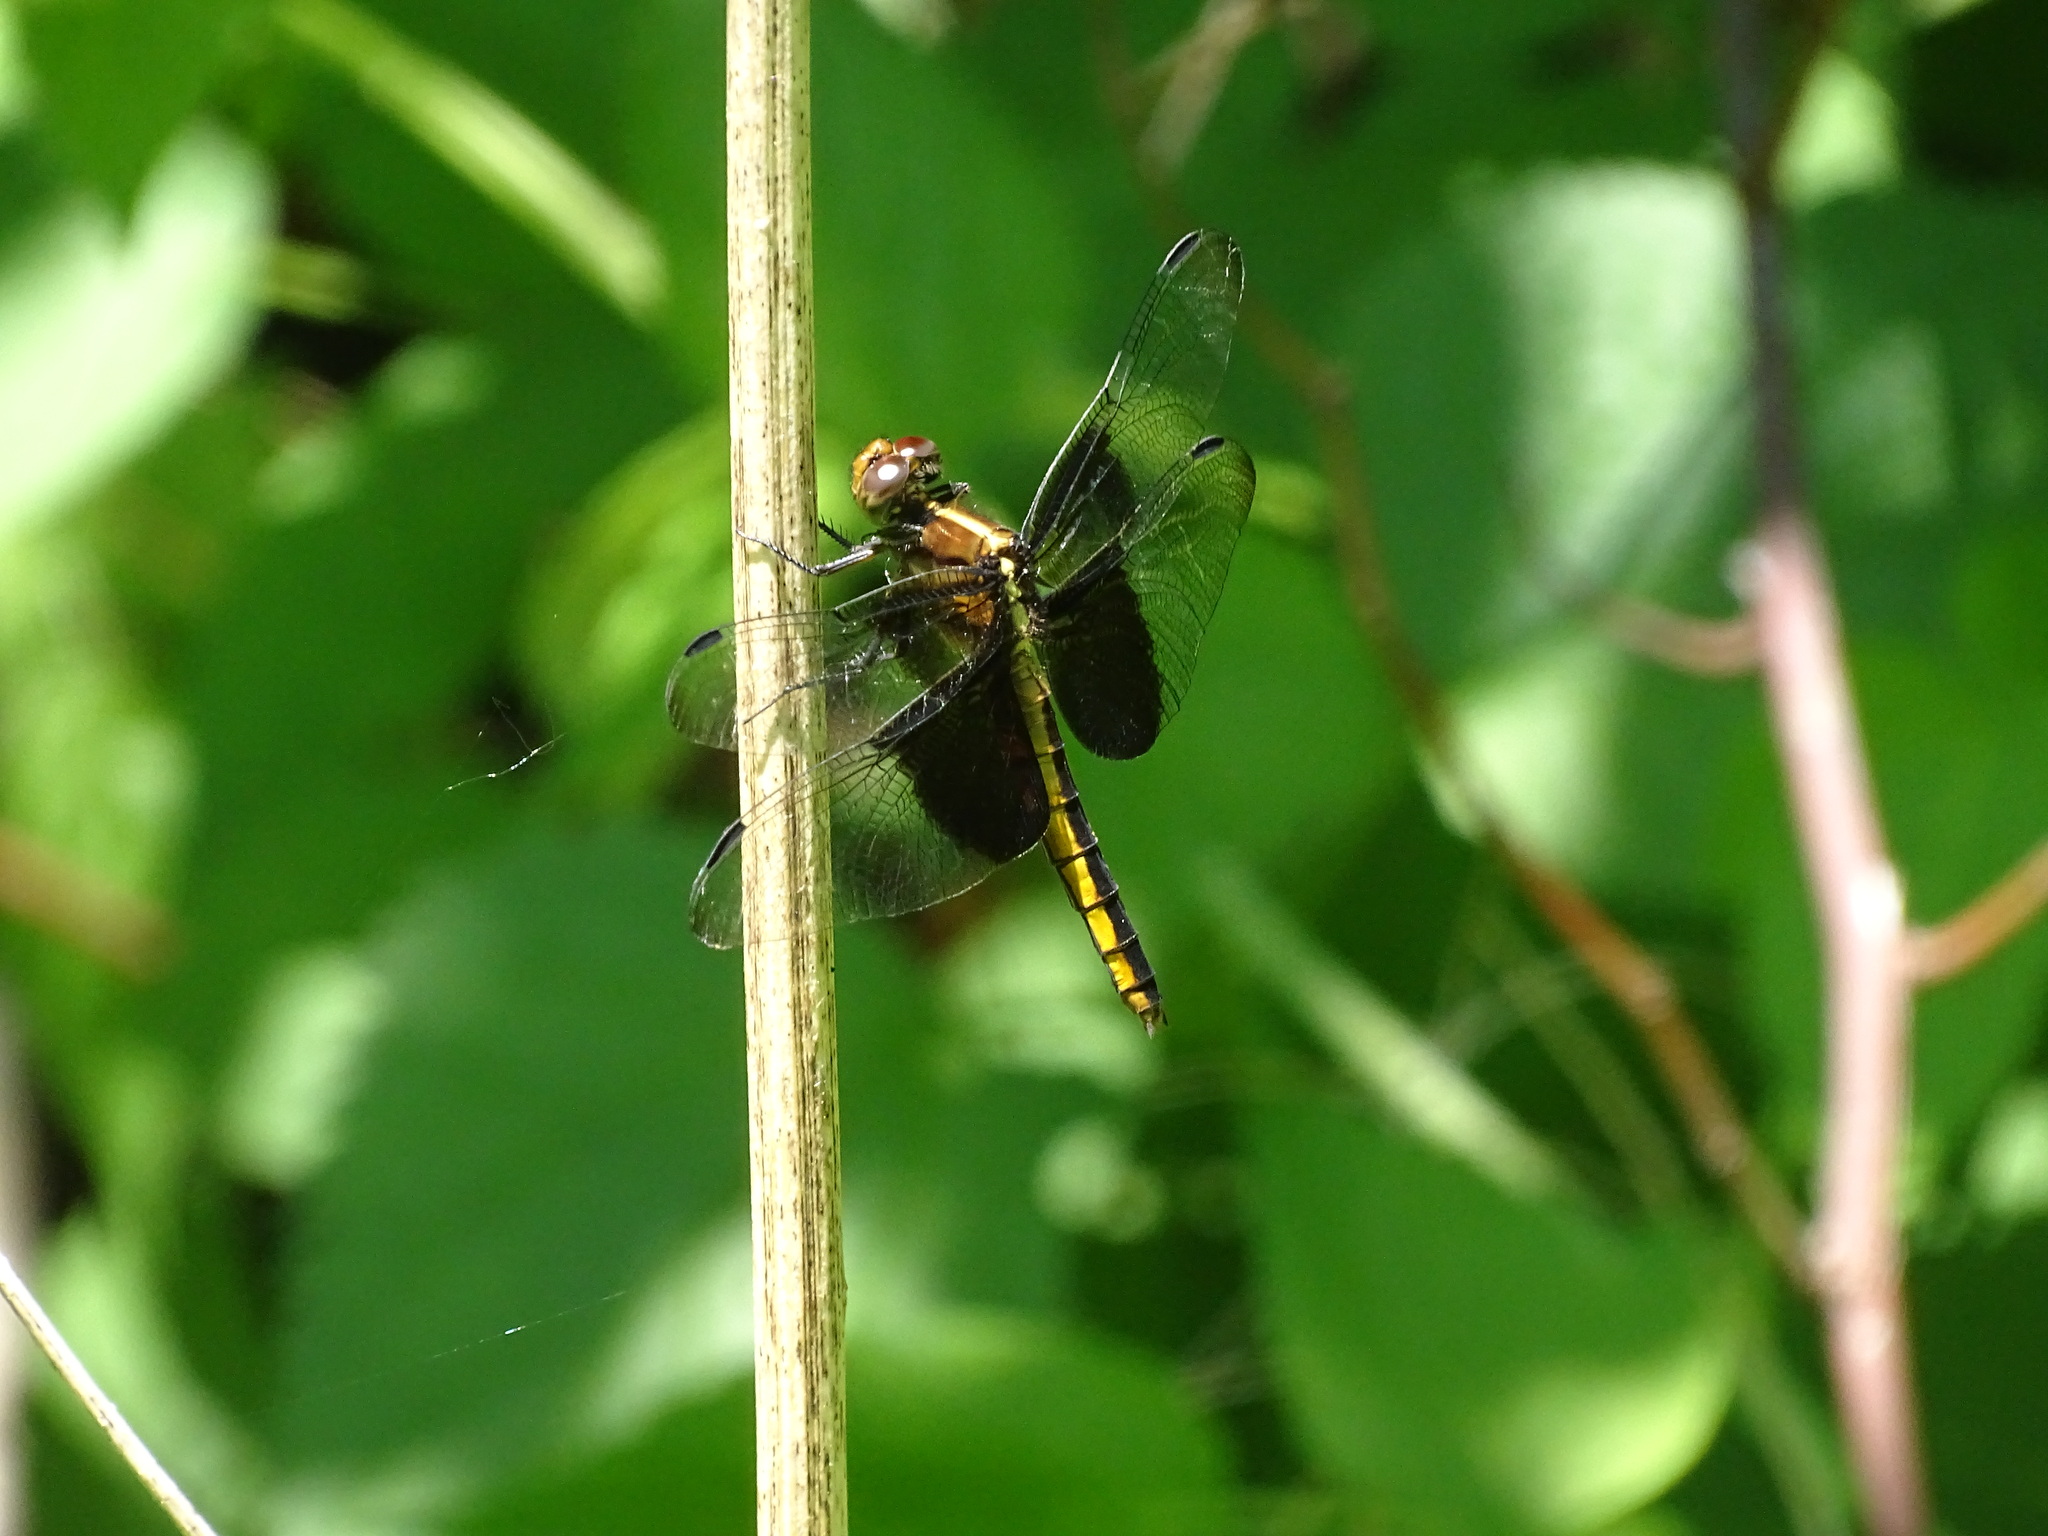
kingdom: Animalia
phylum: Arthropoda
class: Insecta
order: Odonata
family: Libellulidae
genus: Libellula
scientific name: Libellula luctuosa
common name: Widow skimmer
